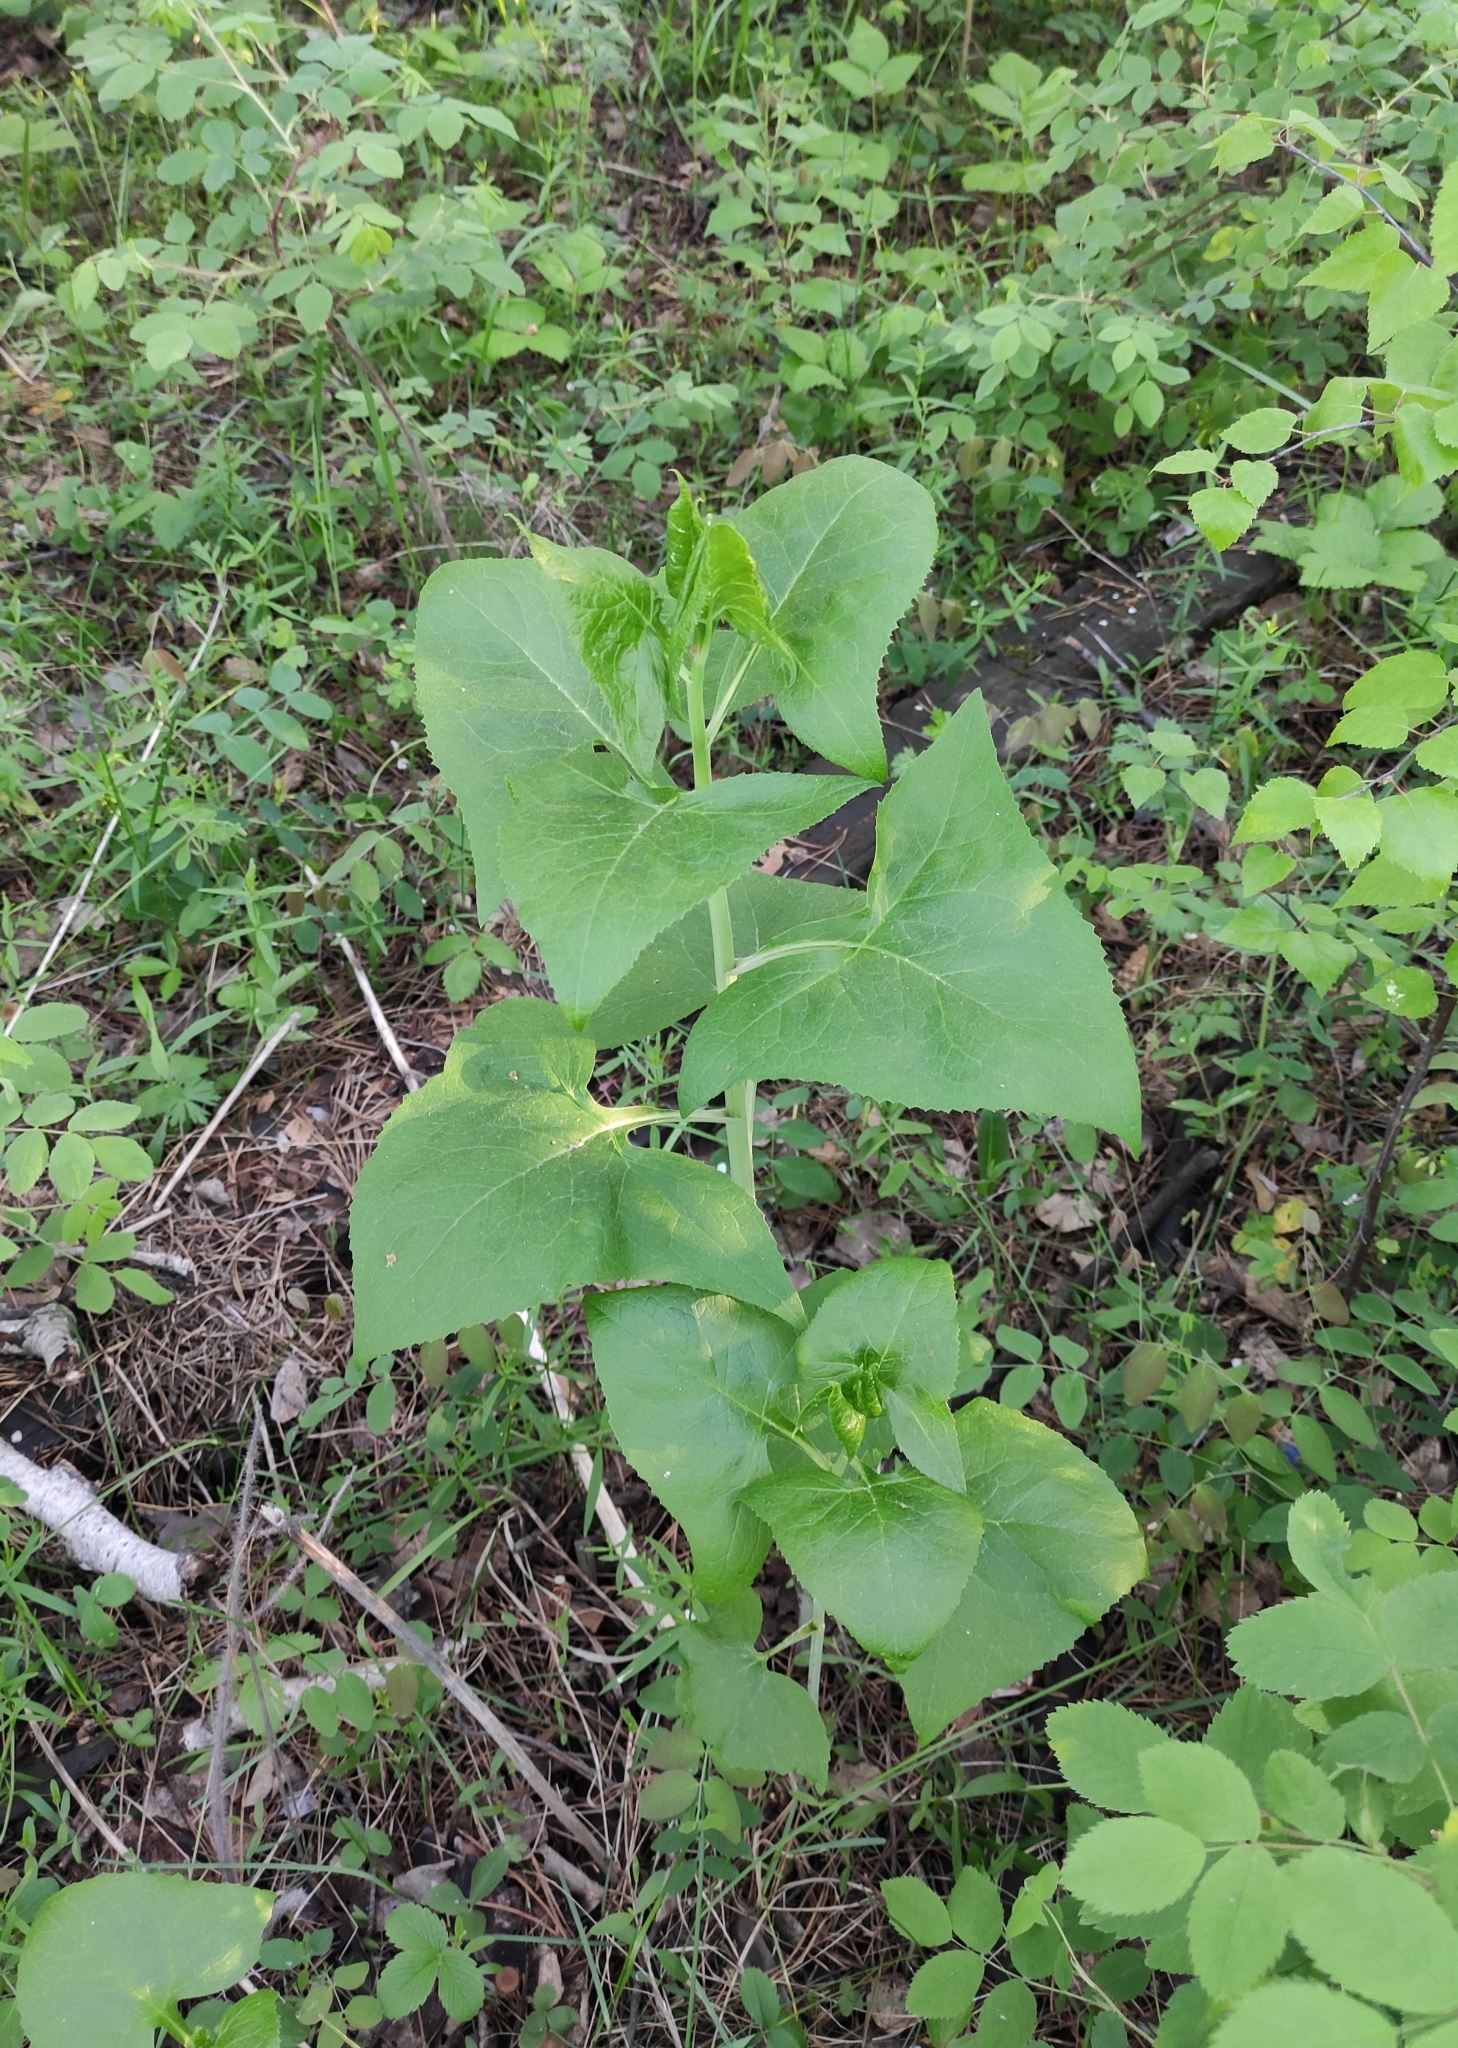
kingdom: Plantae
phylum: Tracheophyta
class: Magnoliopsida
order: Asterales
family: Asteraceae
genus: Parasenecio
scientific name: Parasenecio hastatus
